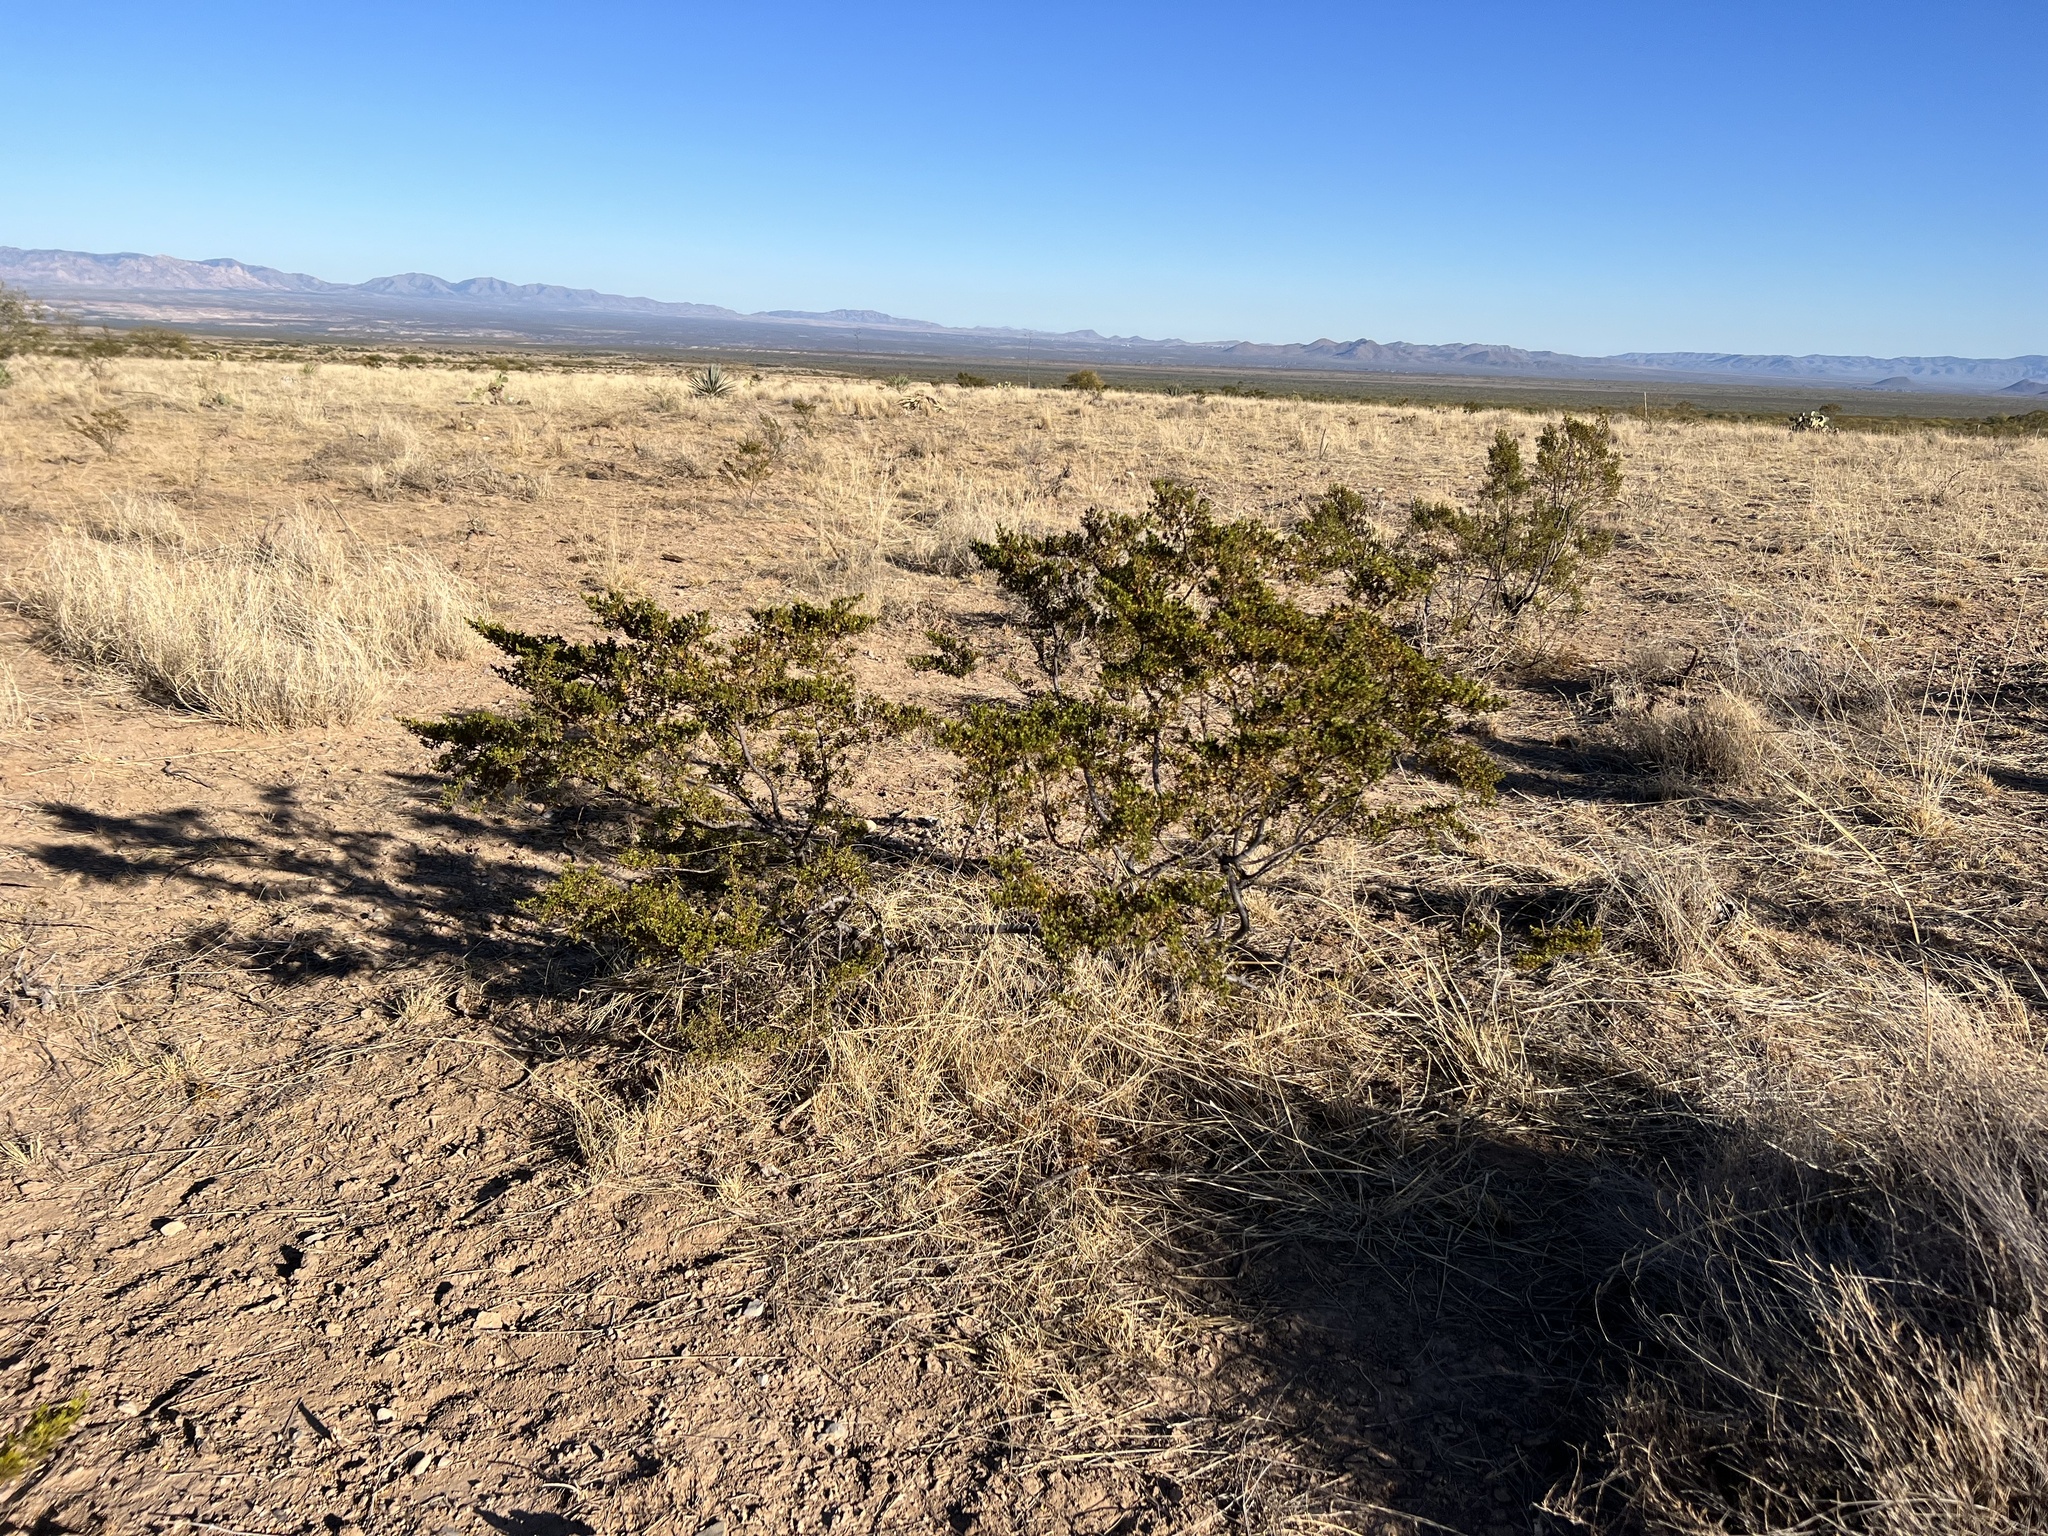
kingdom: Plantae
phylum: Tracheophyta
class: Magnoliopsida
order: Zygophyllales
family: Zygophyllaceae
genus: Larrea
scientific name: Larrea tridentata
